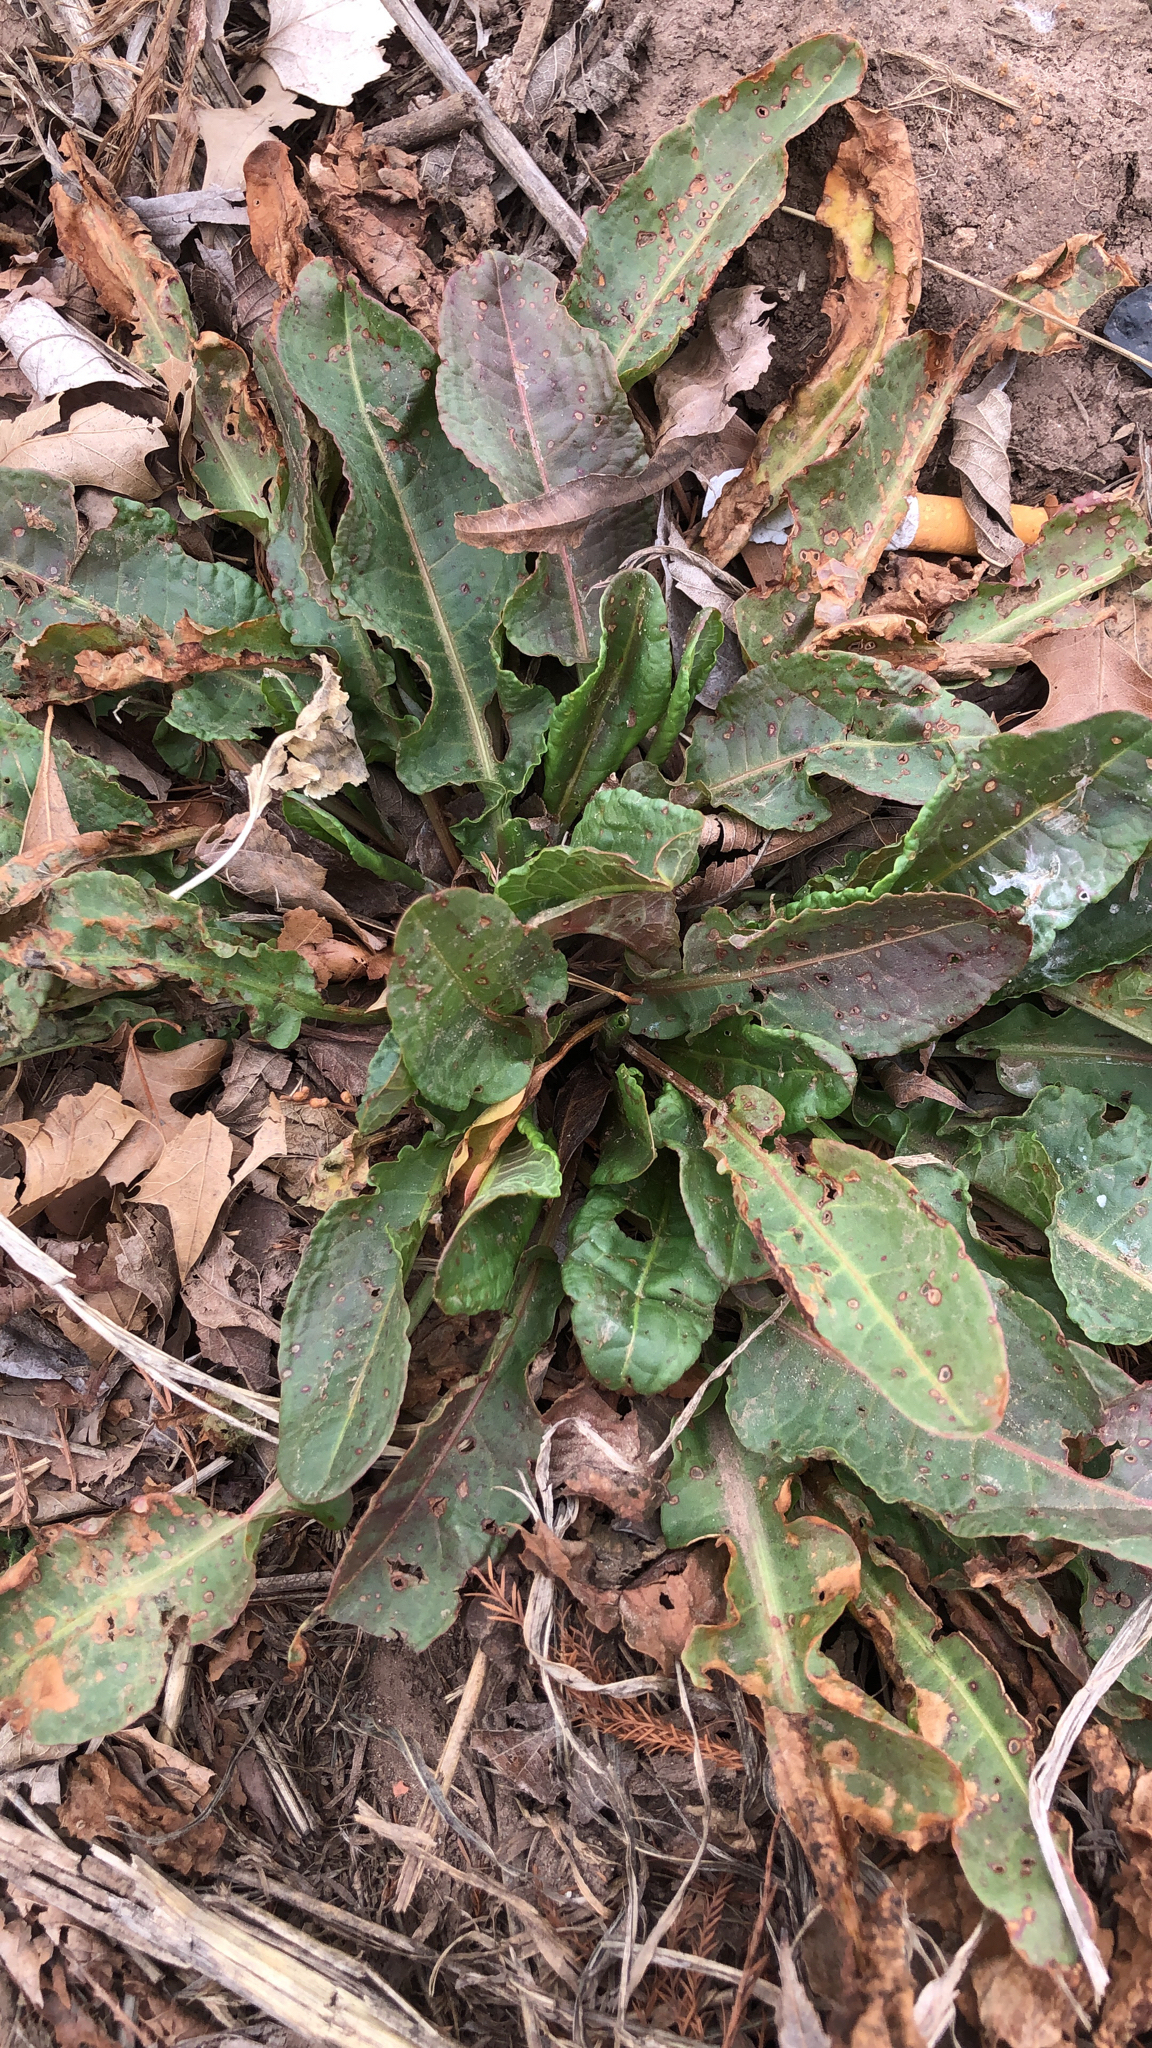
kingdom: Plantae
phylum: Tracheophyta
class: Magnoliopsida
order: Caryophyllales
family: Polygonaceae
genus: Rumex
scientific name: Rumex crispus
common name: Curled dock
